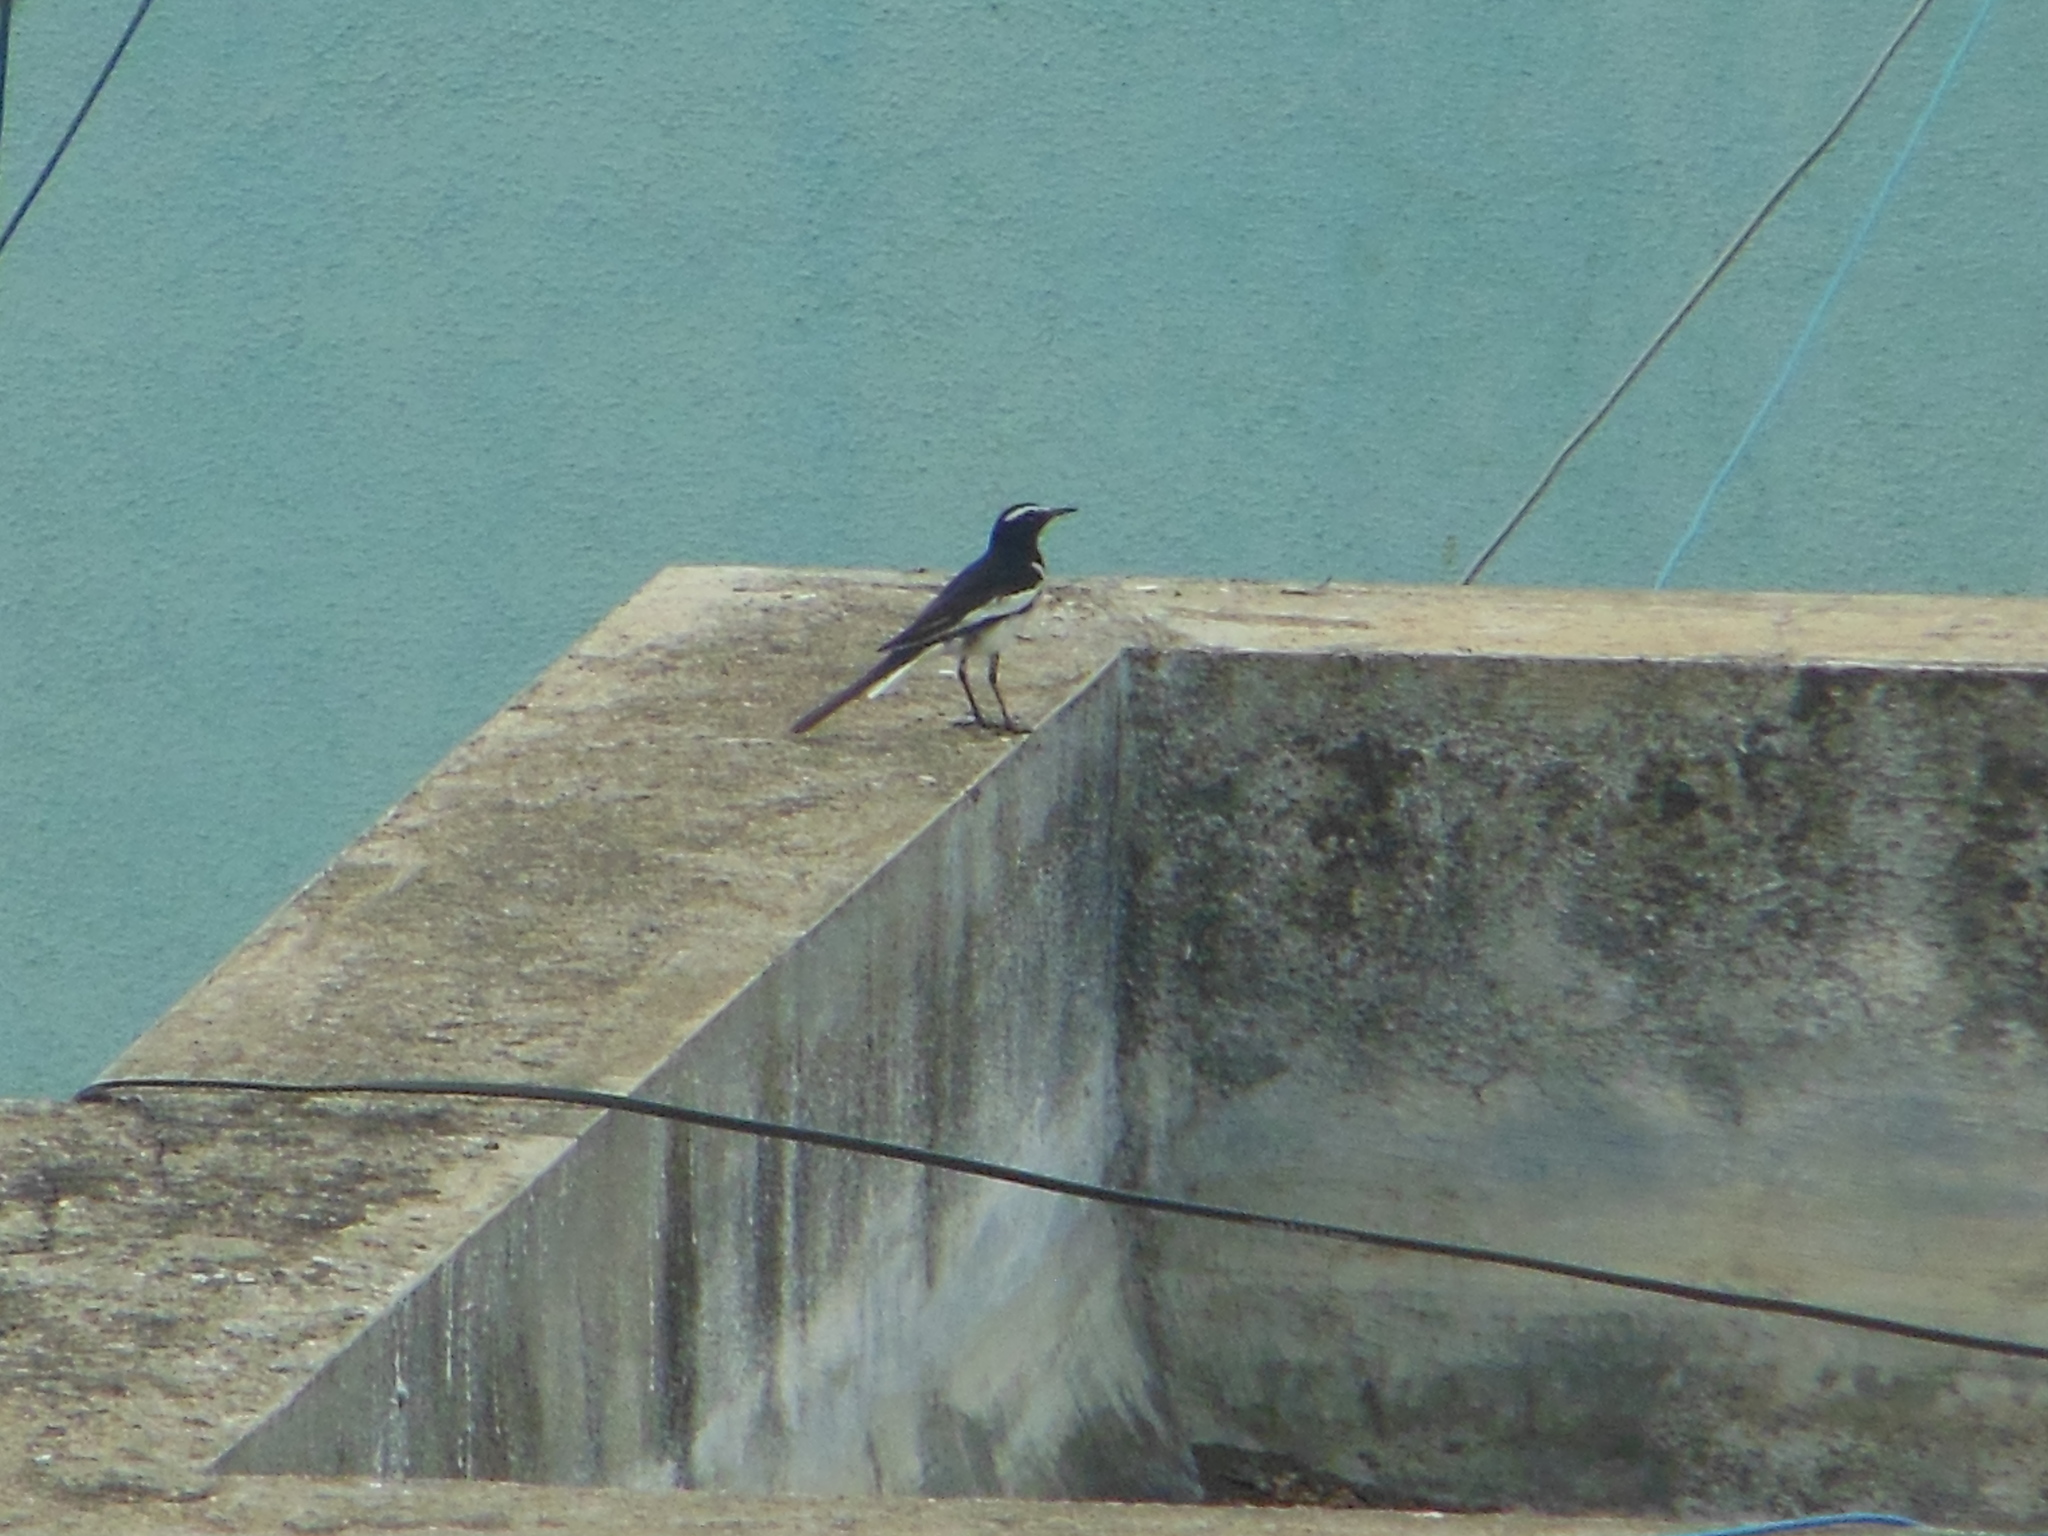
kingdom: Animalia
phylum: Chordata
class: Aves
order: Passeriformes
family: Motacillidae
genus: Motacilla
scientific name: Motacilla maderaspatensis
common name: White-browed wagtail
